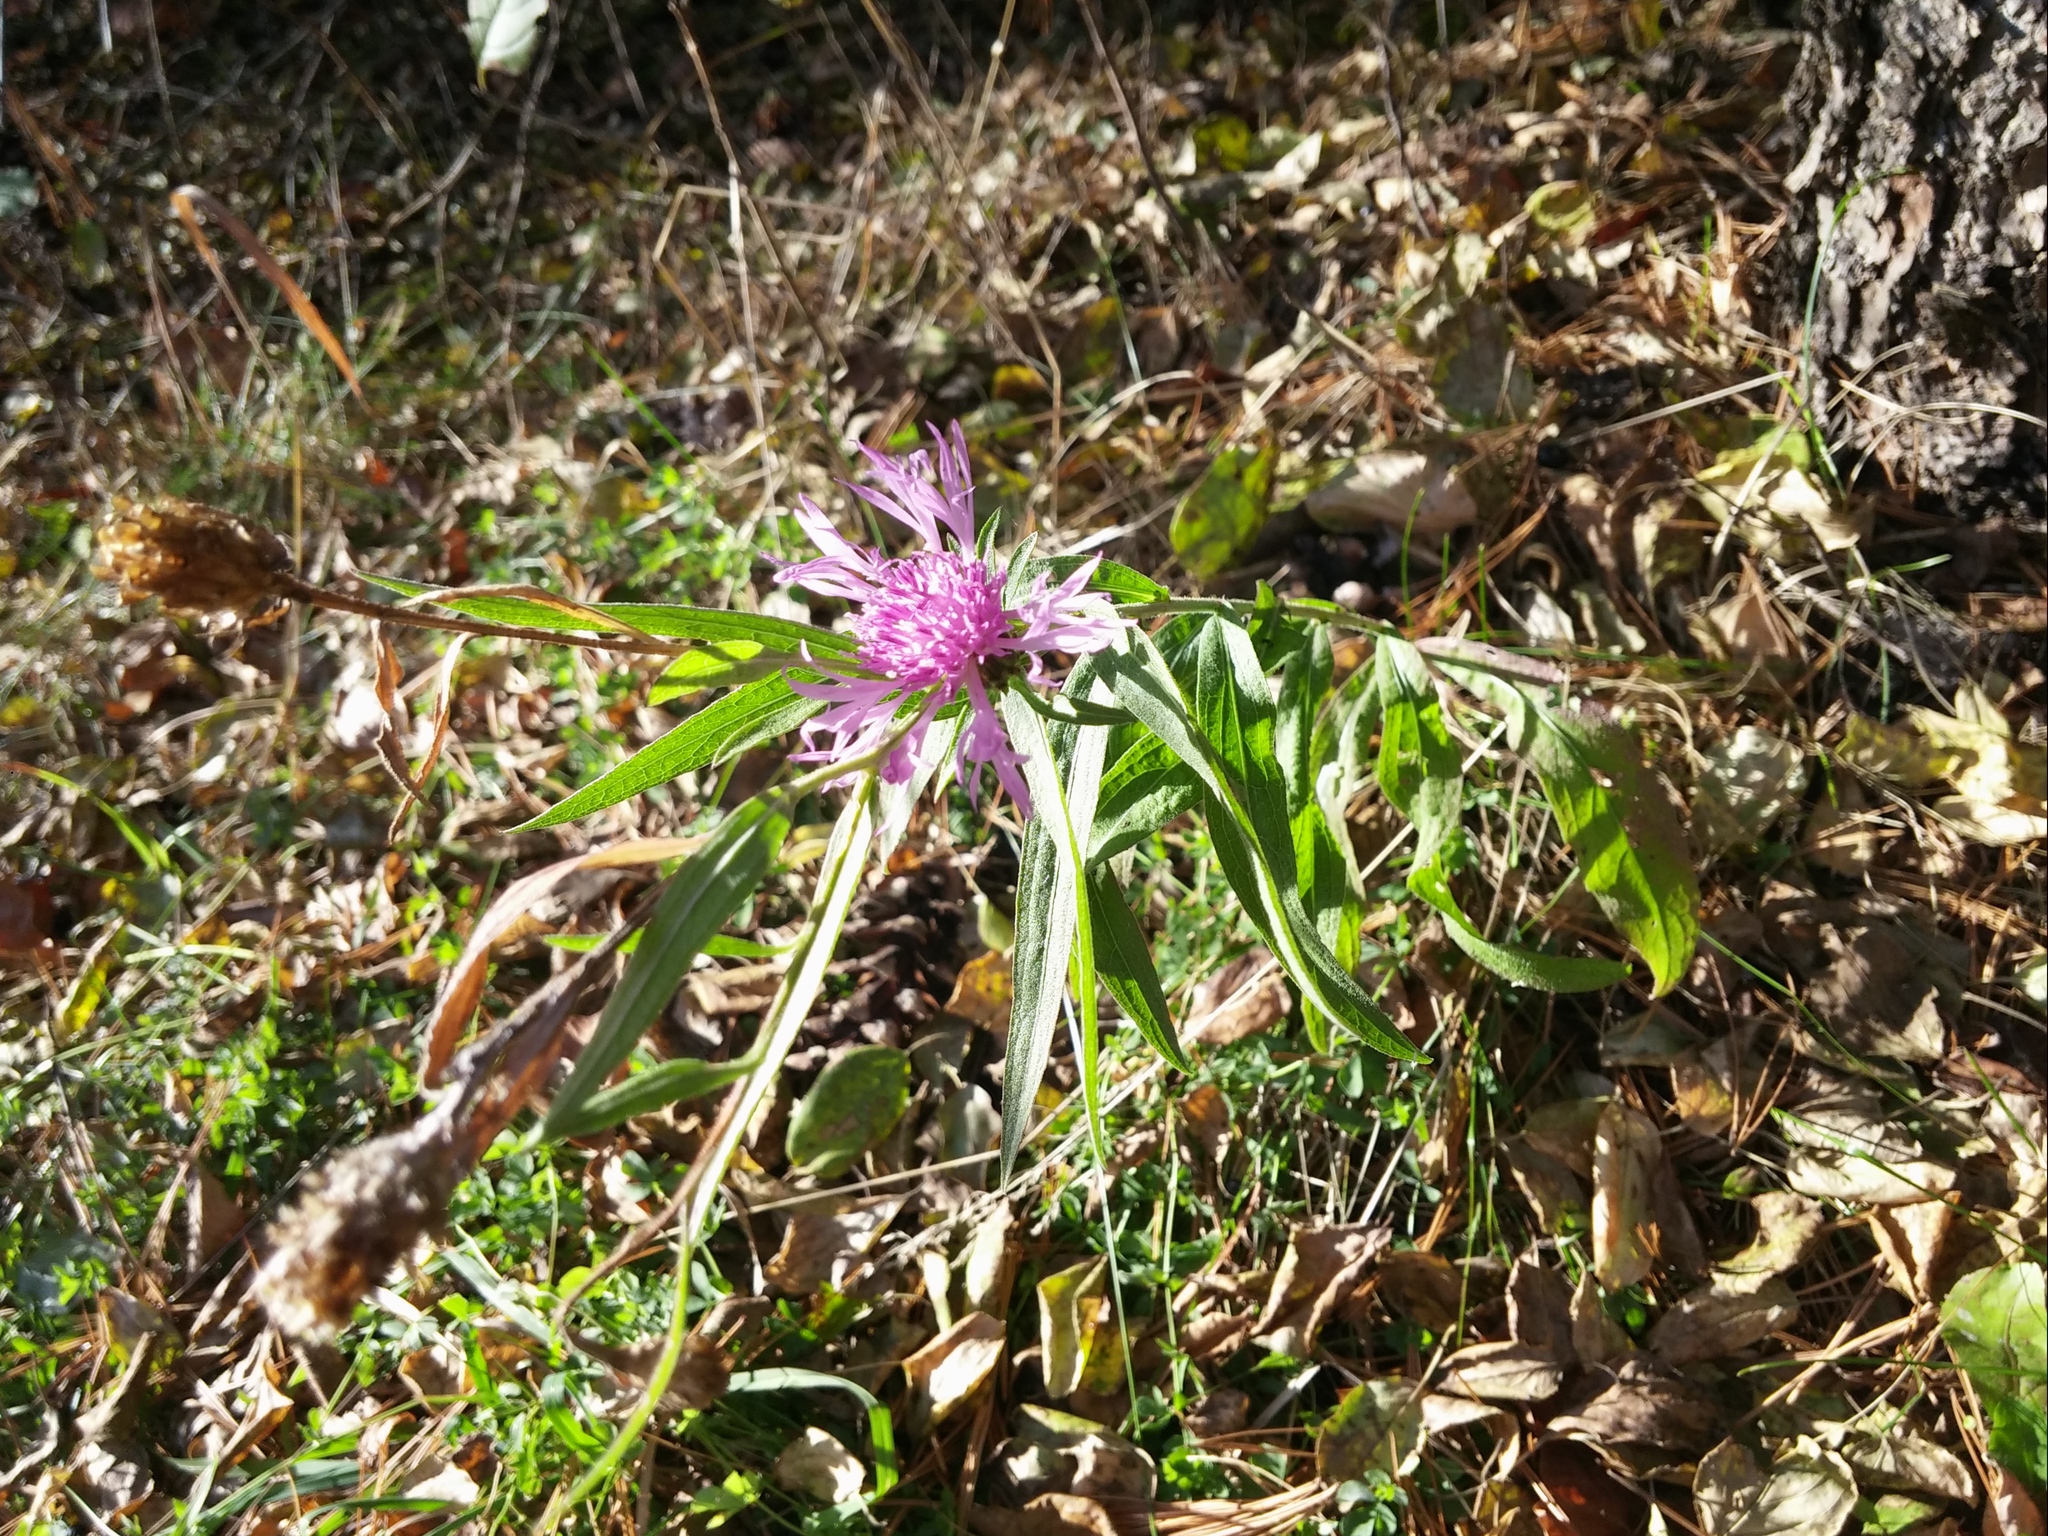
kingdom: Plantae
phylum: Tracheophyta
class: Magnoliopsida
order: Asterales
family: Asteraceae
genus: Centaurea
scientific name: Centaurea jacea
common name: Brown knapweed
